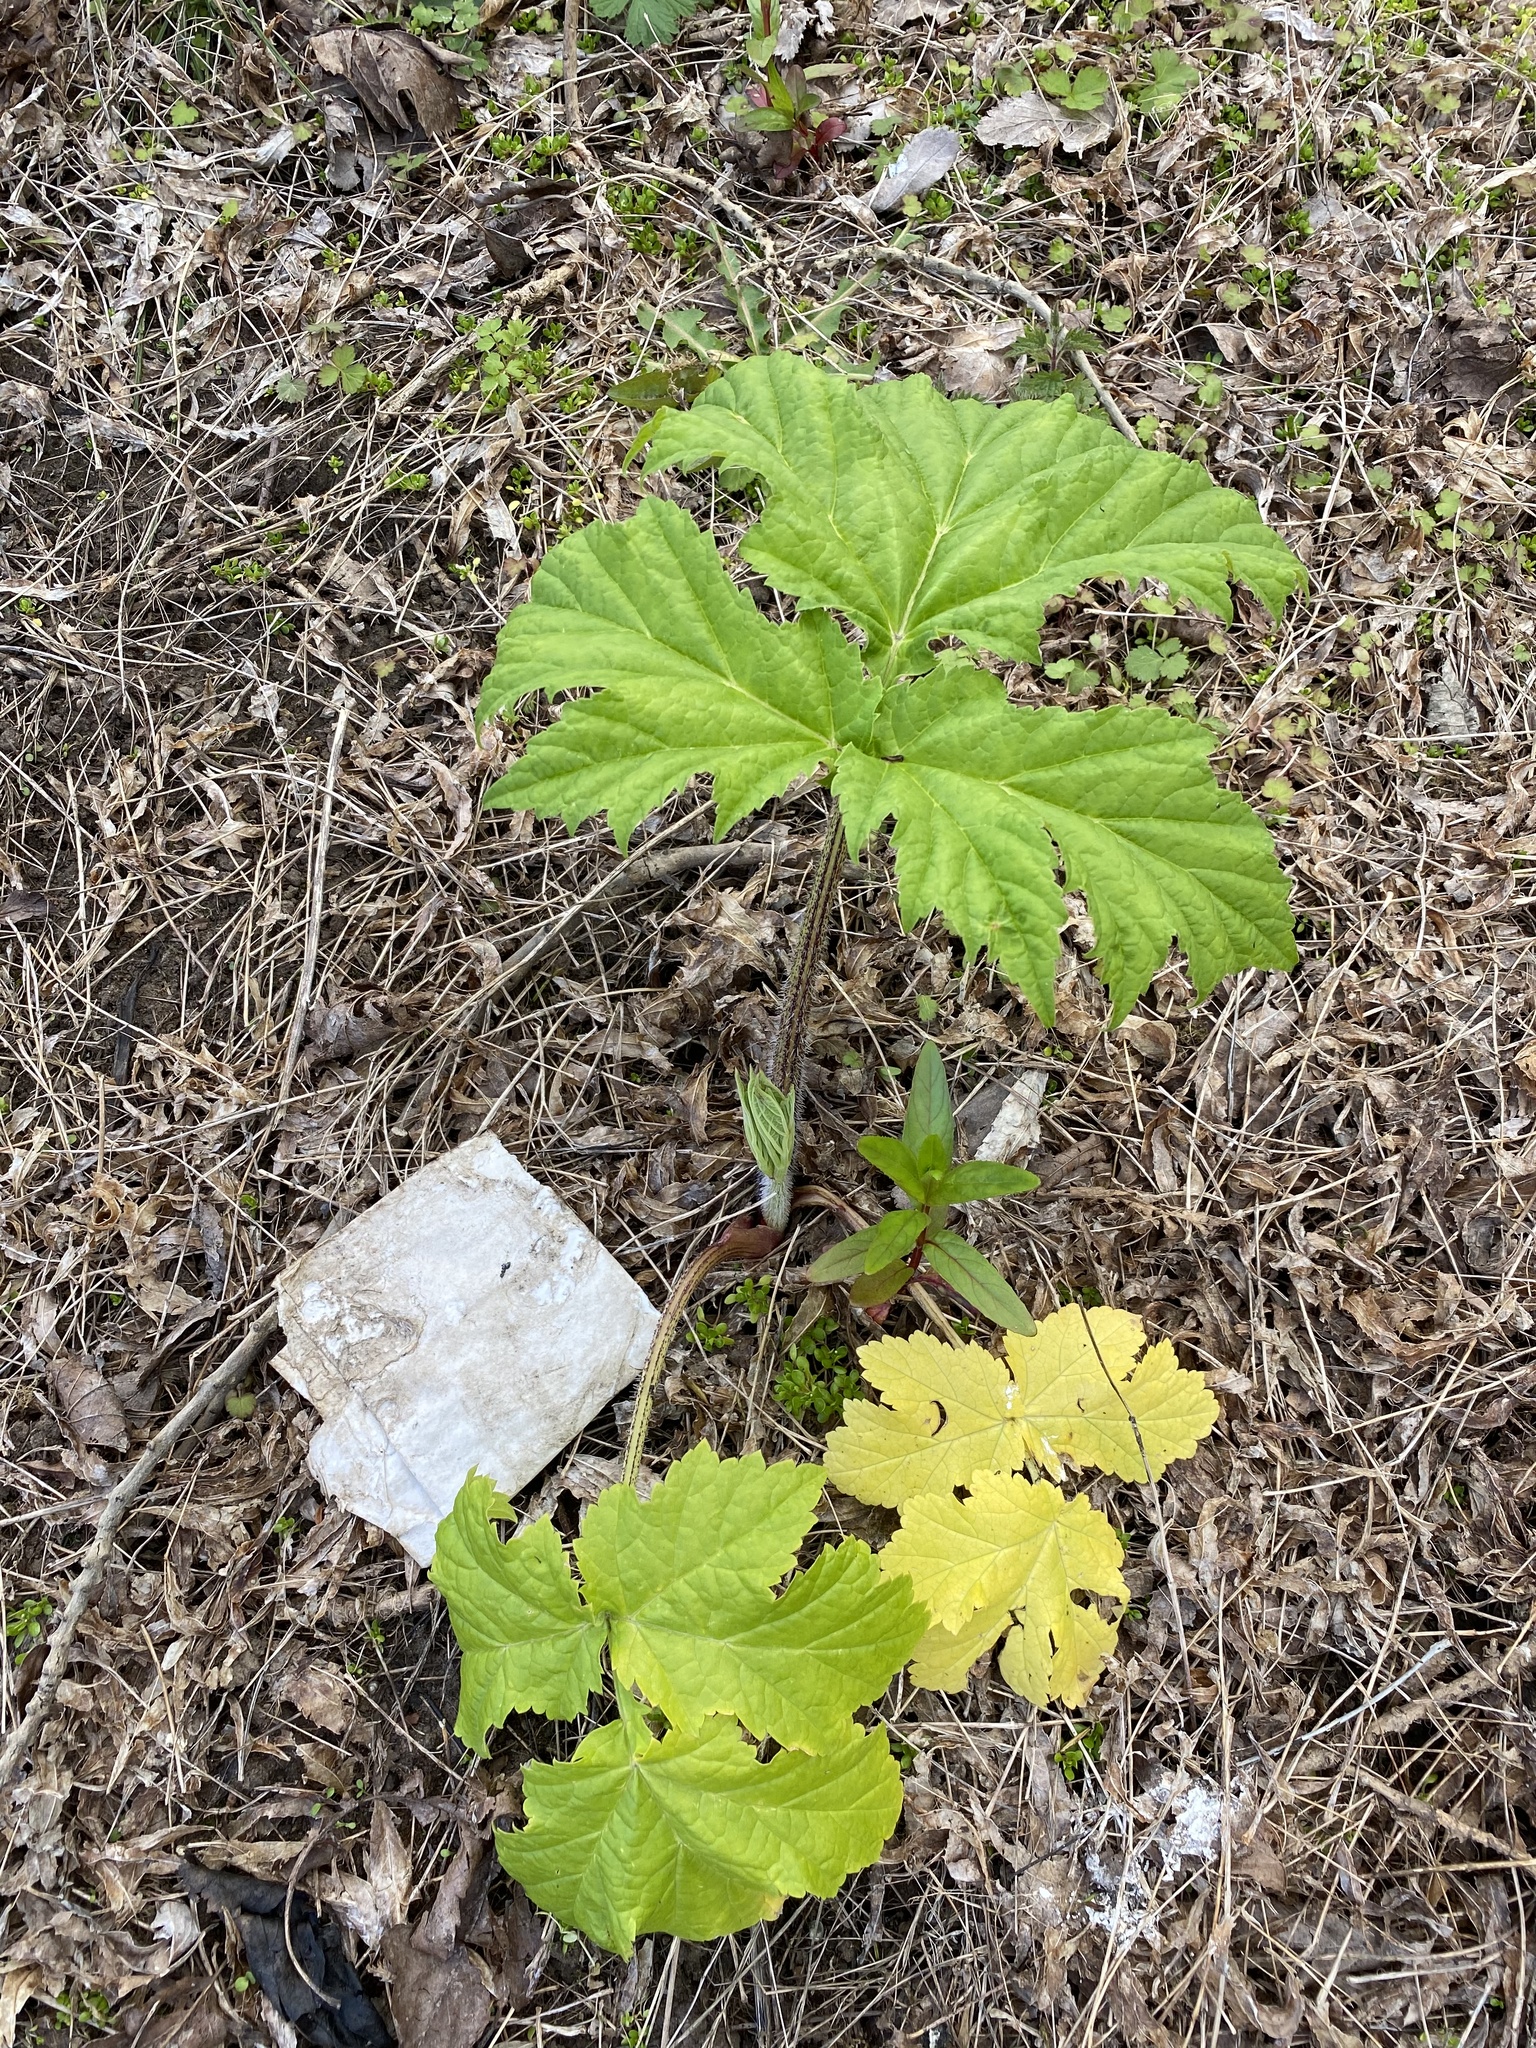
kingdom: Plantae
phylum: Tracheophyta
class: Magnoliopsida
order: Apiales
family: Apiaceae
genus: Heracleum
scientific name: Heracleum mantegazzianum
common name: Giant hogweed
